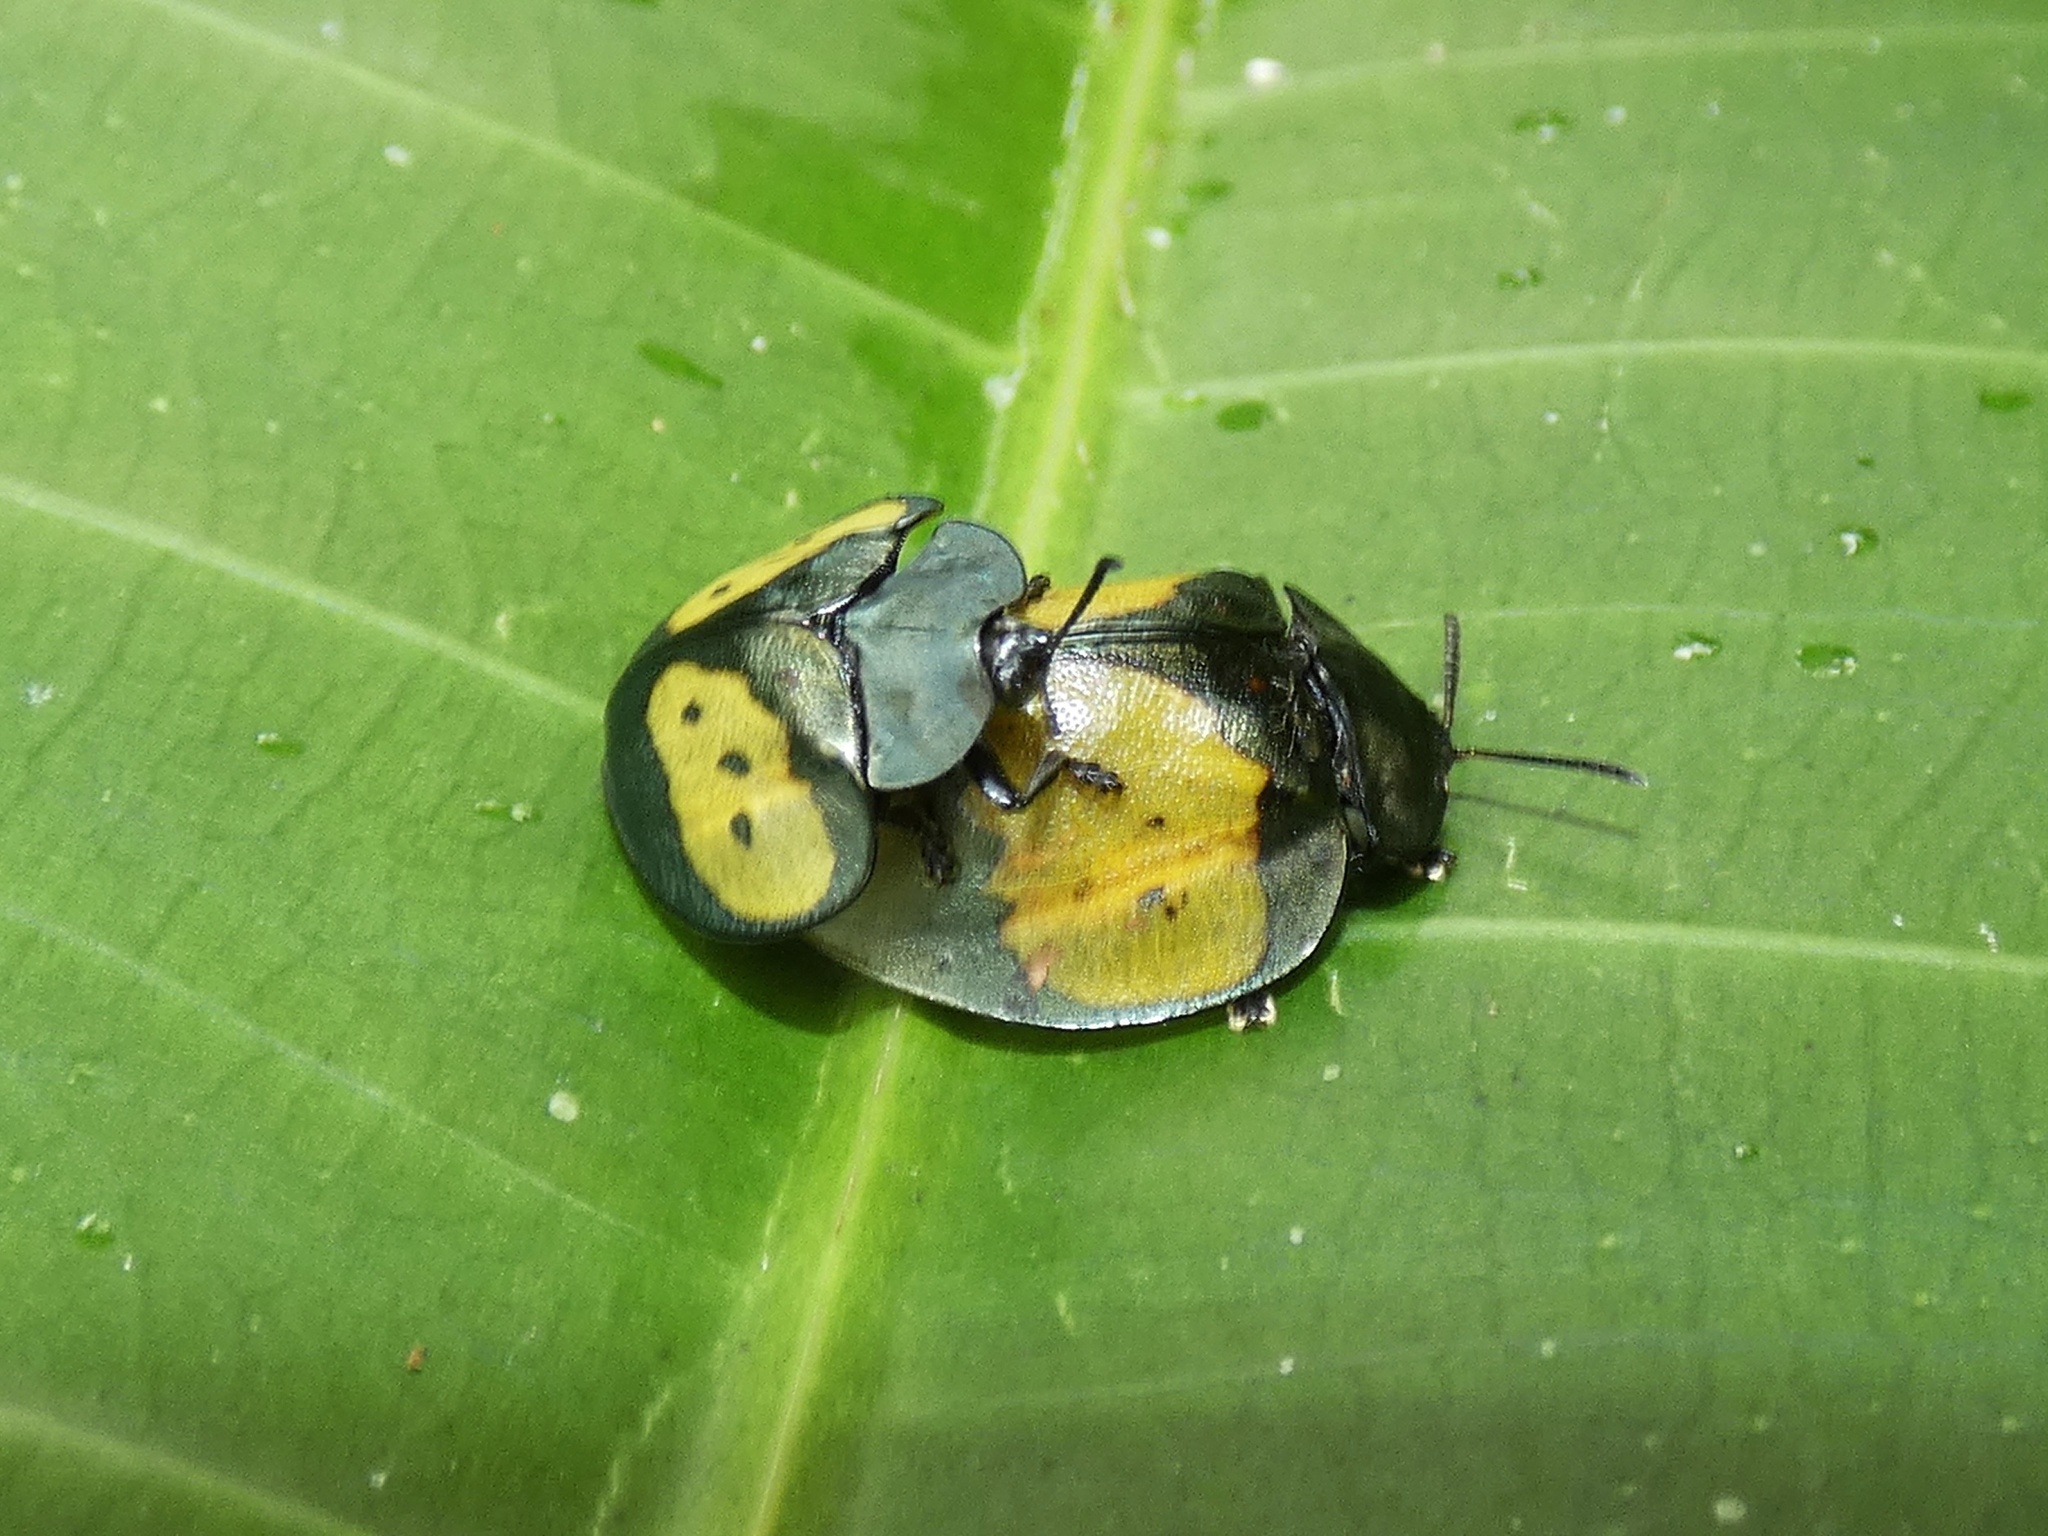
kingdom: Animalia
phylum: Arthropoda
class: Insecta
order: Coleoptera
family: Chrysomelidae
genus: Stolas
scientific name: Stolas ephippium
